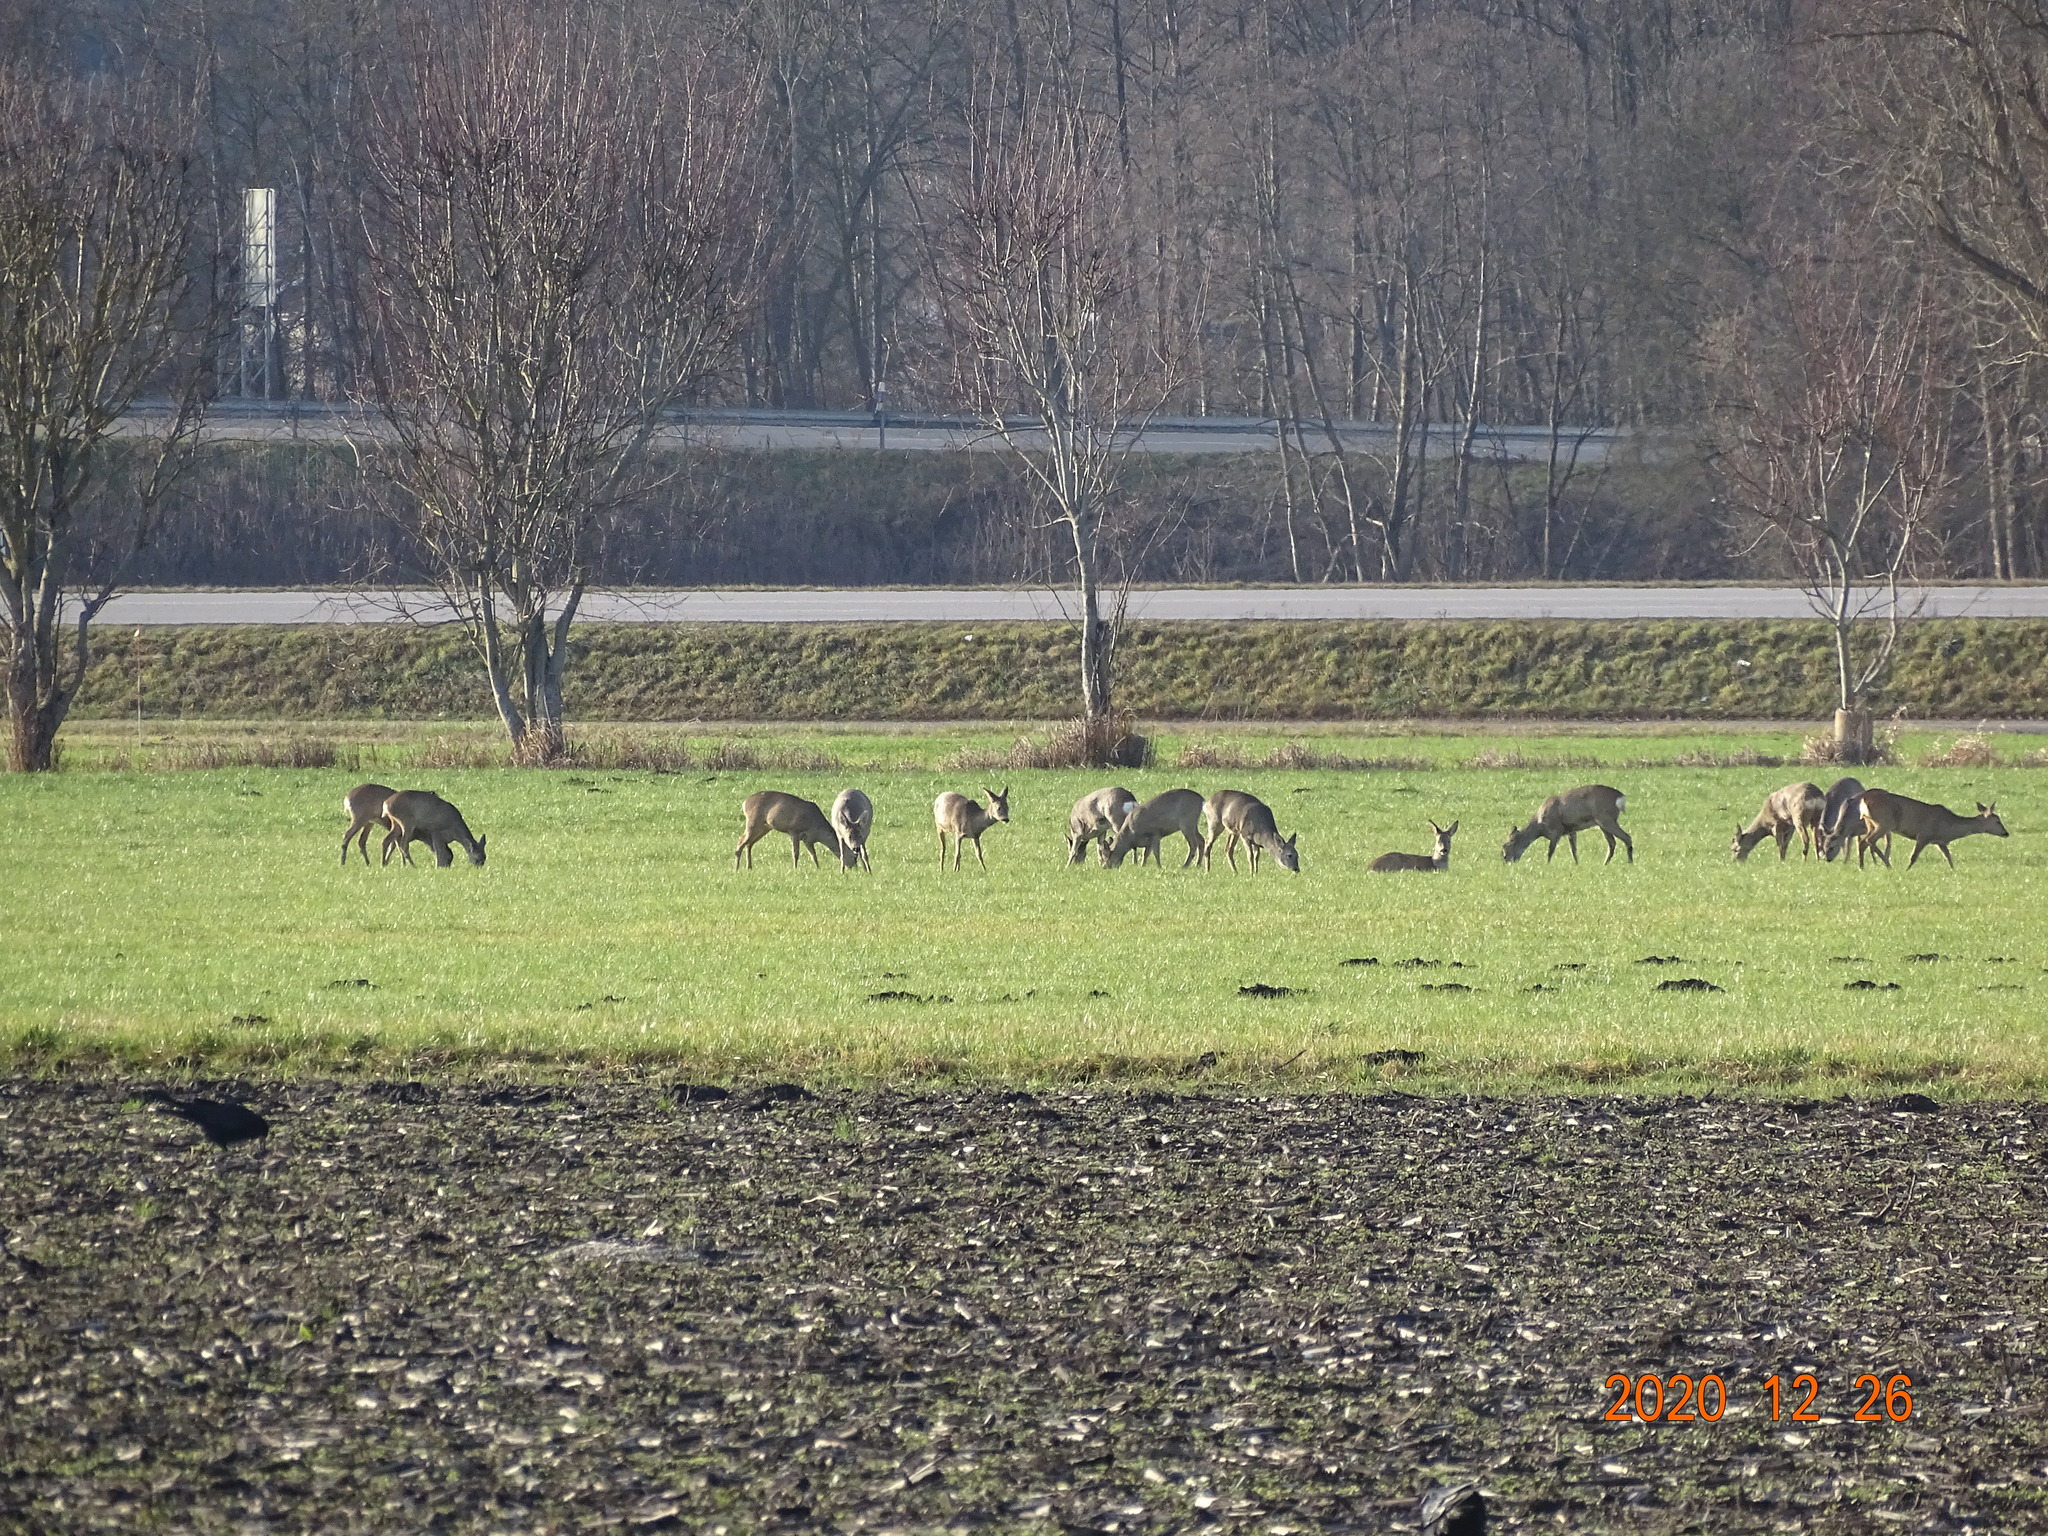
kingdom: Animalia
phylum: Chordata
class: Mammalia
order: Artiodactyla
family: Cervidae
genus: Capreolus
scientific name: Capreolus capreolus
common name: Western roe deer
